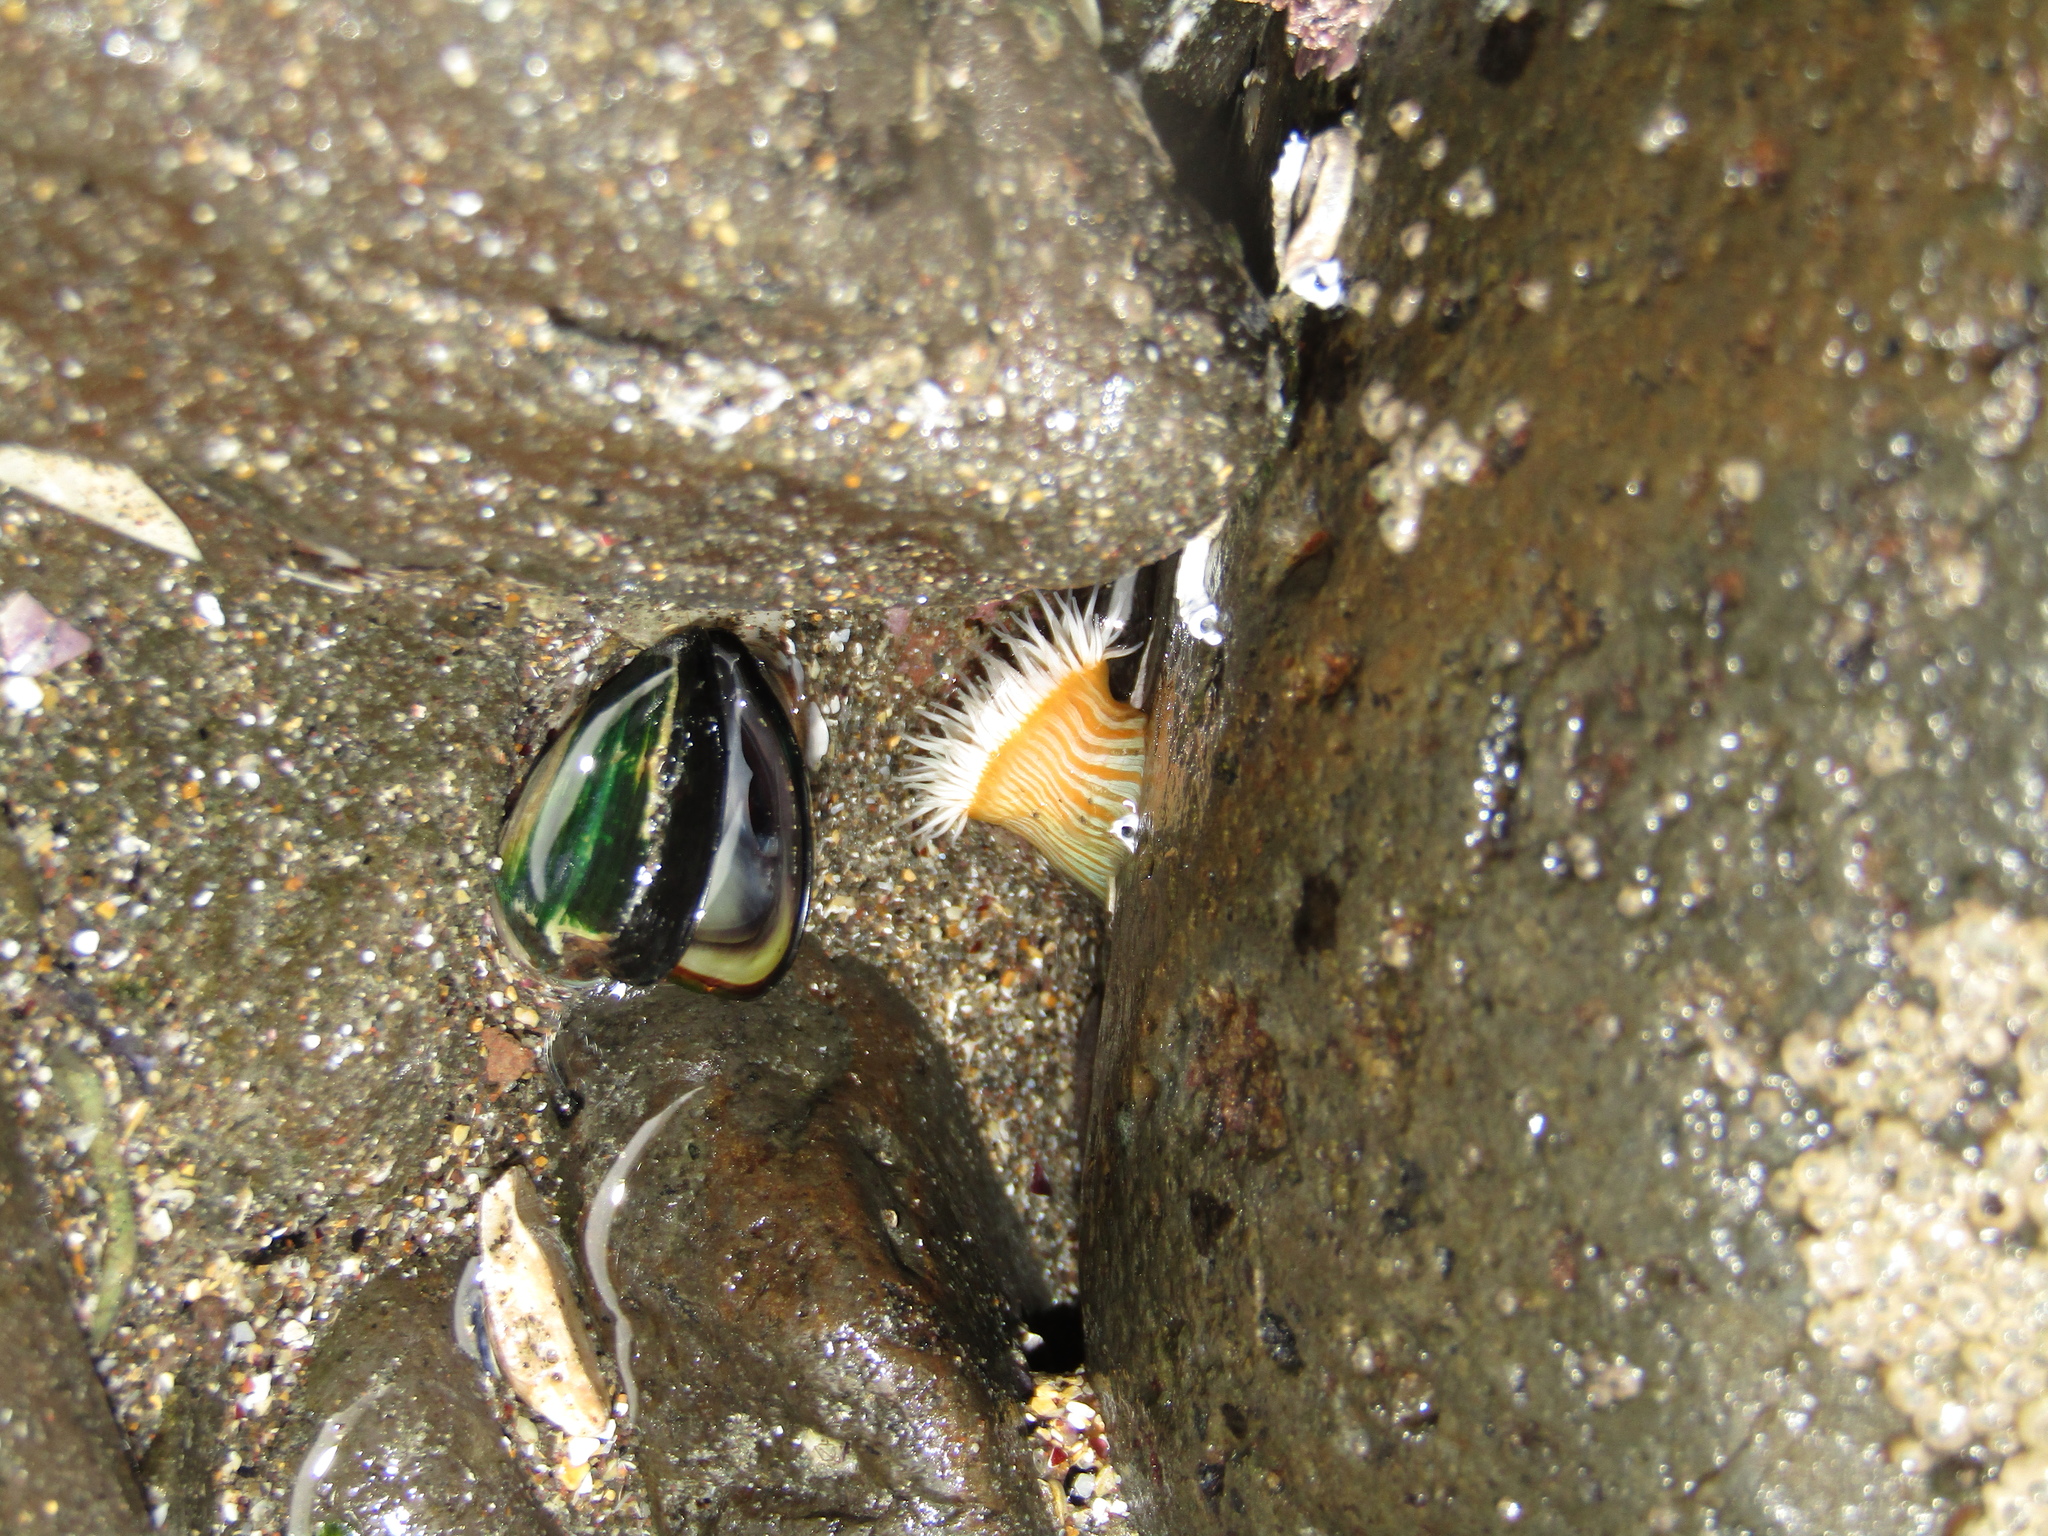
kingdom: Animalia
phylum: Cnidaria
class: Anthozoa
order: Actiniaria
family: Sagartiidae
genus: Anthothoe
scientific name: Anthothoe albocincta
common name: Orange striped anemone
